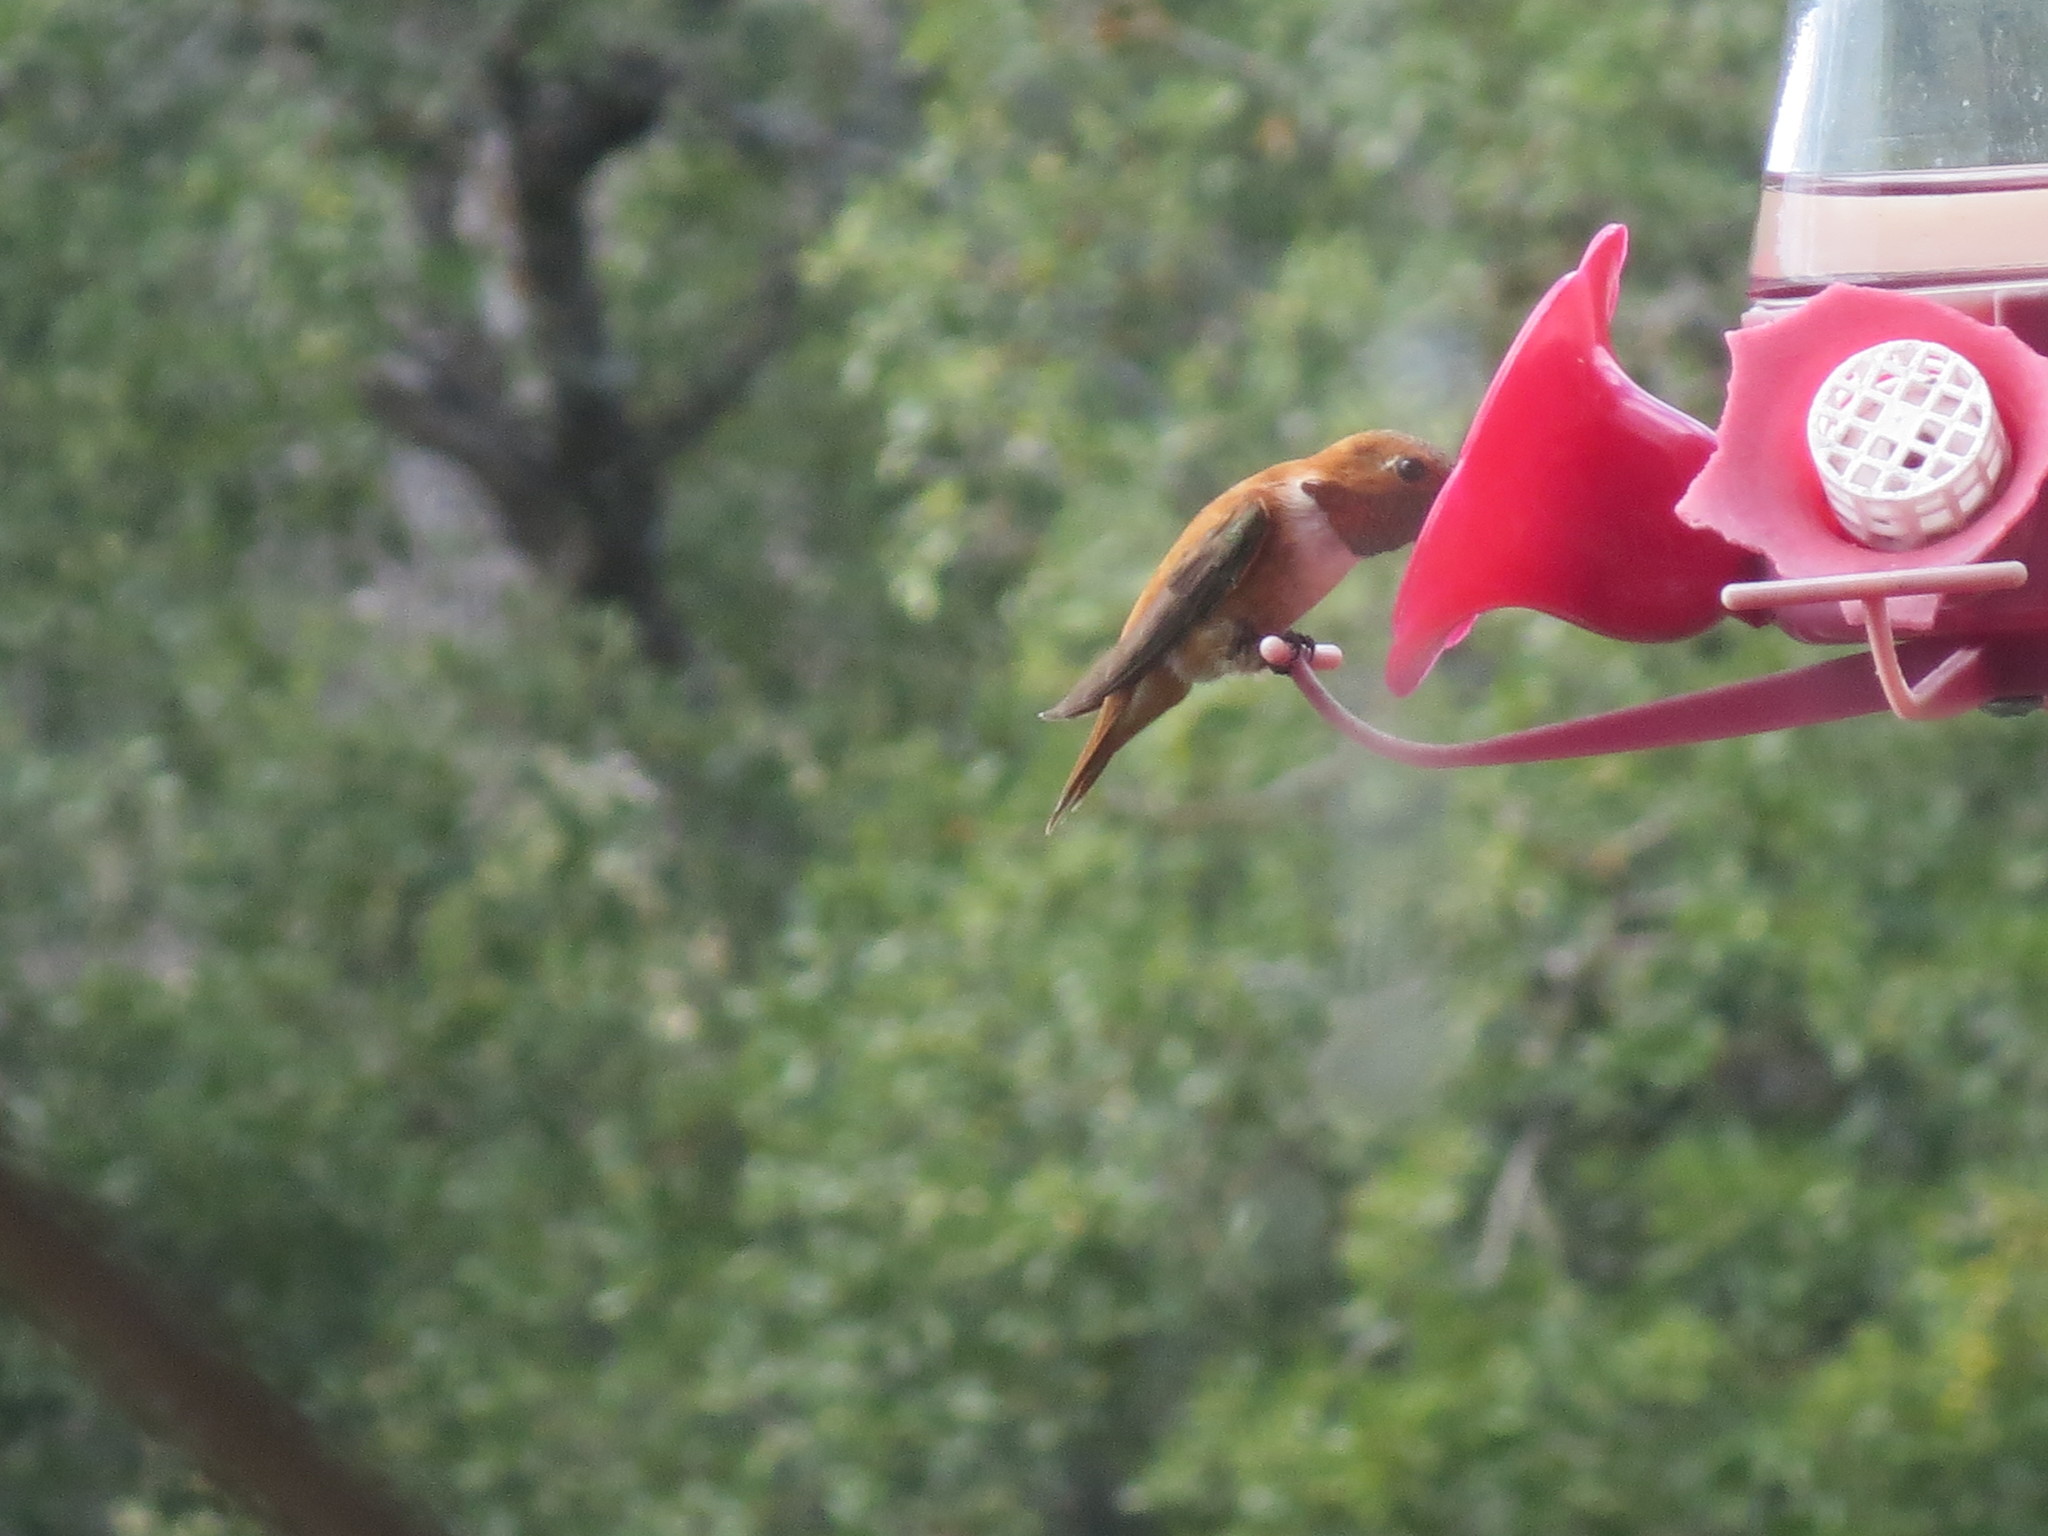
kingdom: Animalia
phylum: Chordata
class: Aves
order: Apodiformes
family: Trochilidae
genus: Selasphorus
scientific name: Selasphorus rufus
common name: Rufous hummingbird
